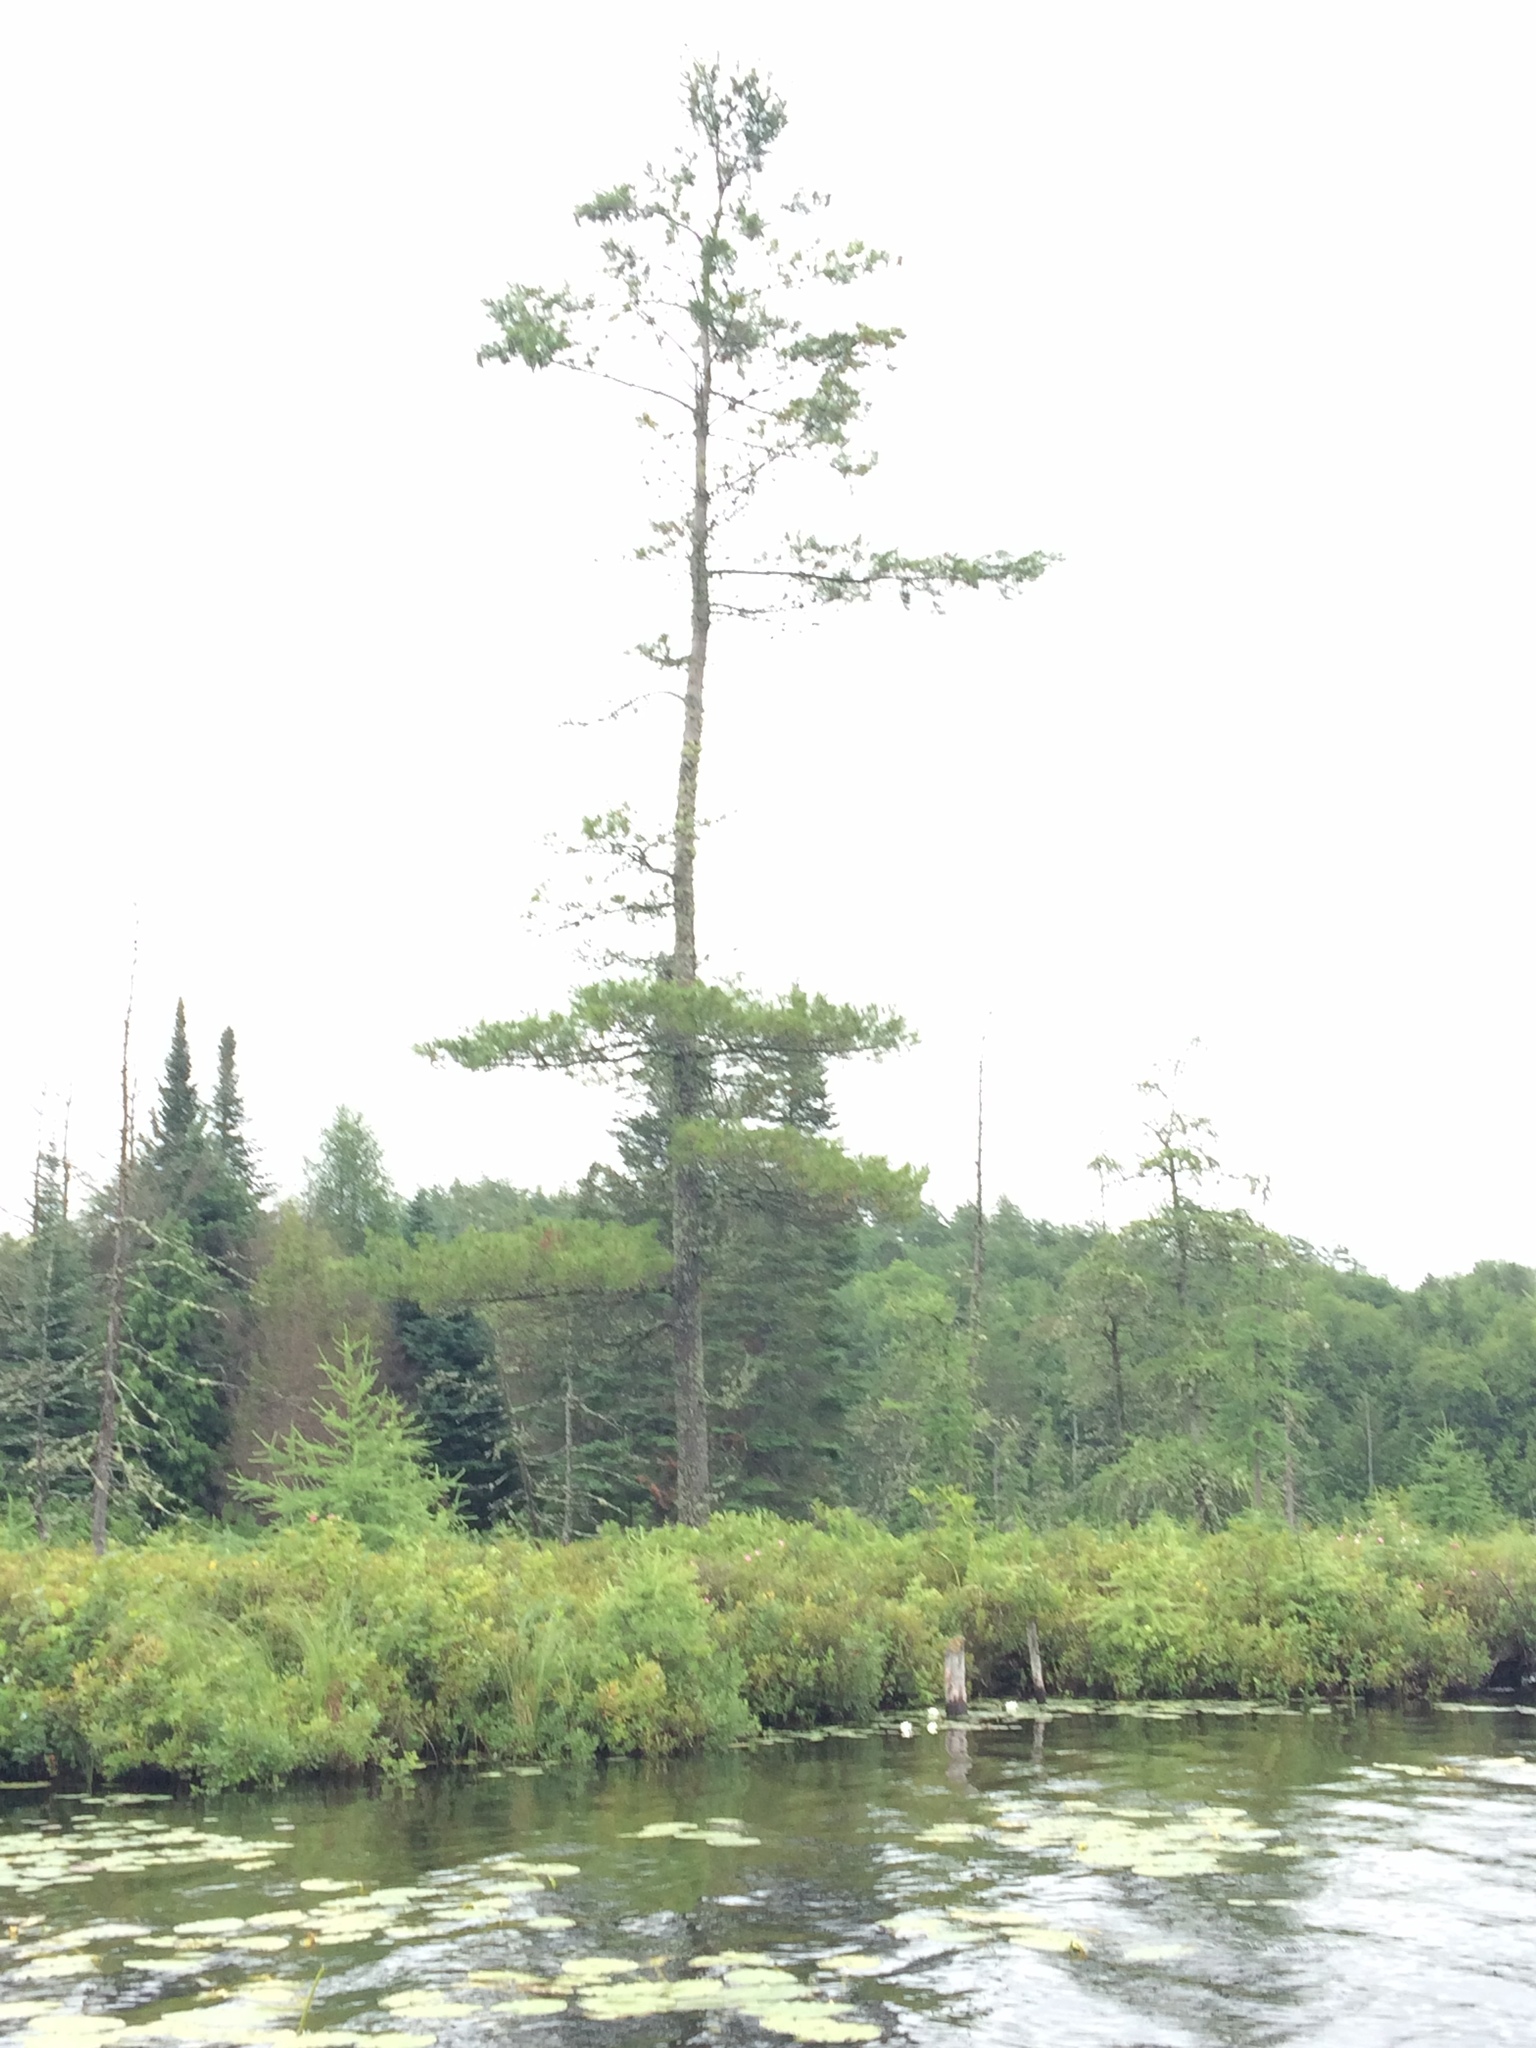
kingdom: Plantae
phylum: Tracheophyta
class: Pinopsida
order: Pinales
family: Pinaceae
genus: Pinus
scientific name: Pinus strobus
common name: Weymouth pine
